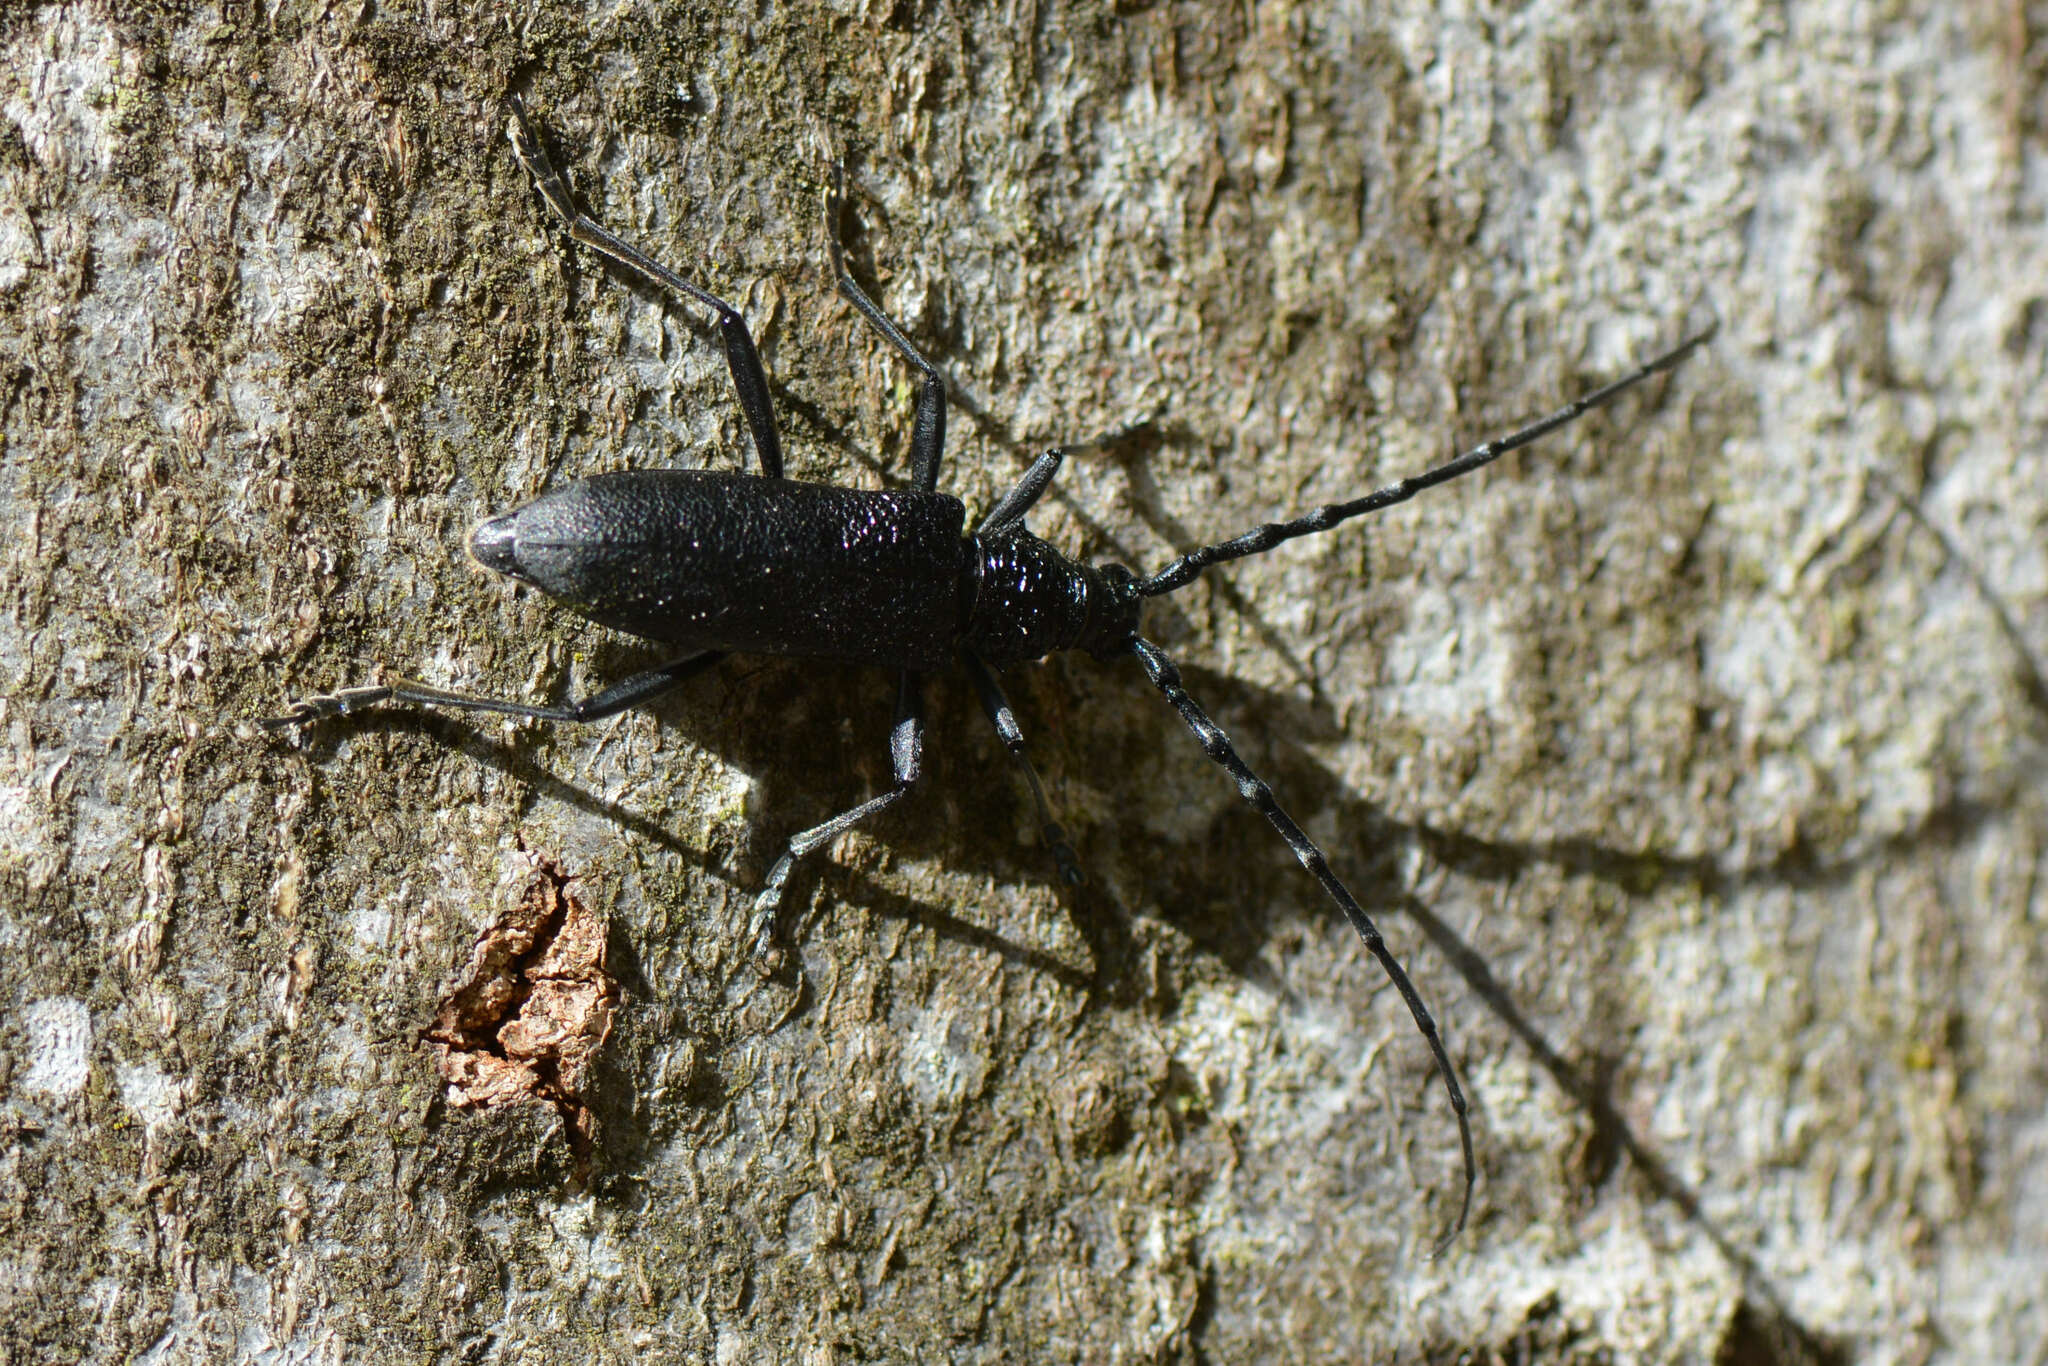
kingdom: Animalia
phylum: Arthropoda
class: Insecta
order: Coleoptera
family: Cerambycidae
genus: Cerambyx
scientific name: Cerambyx scopolii
